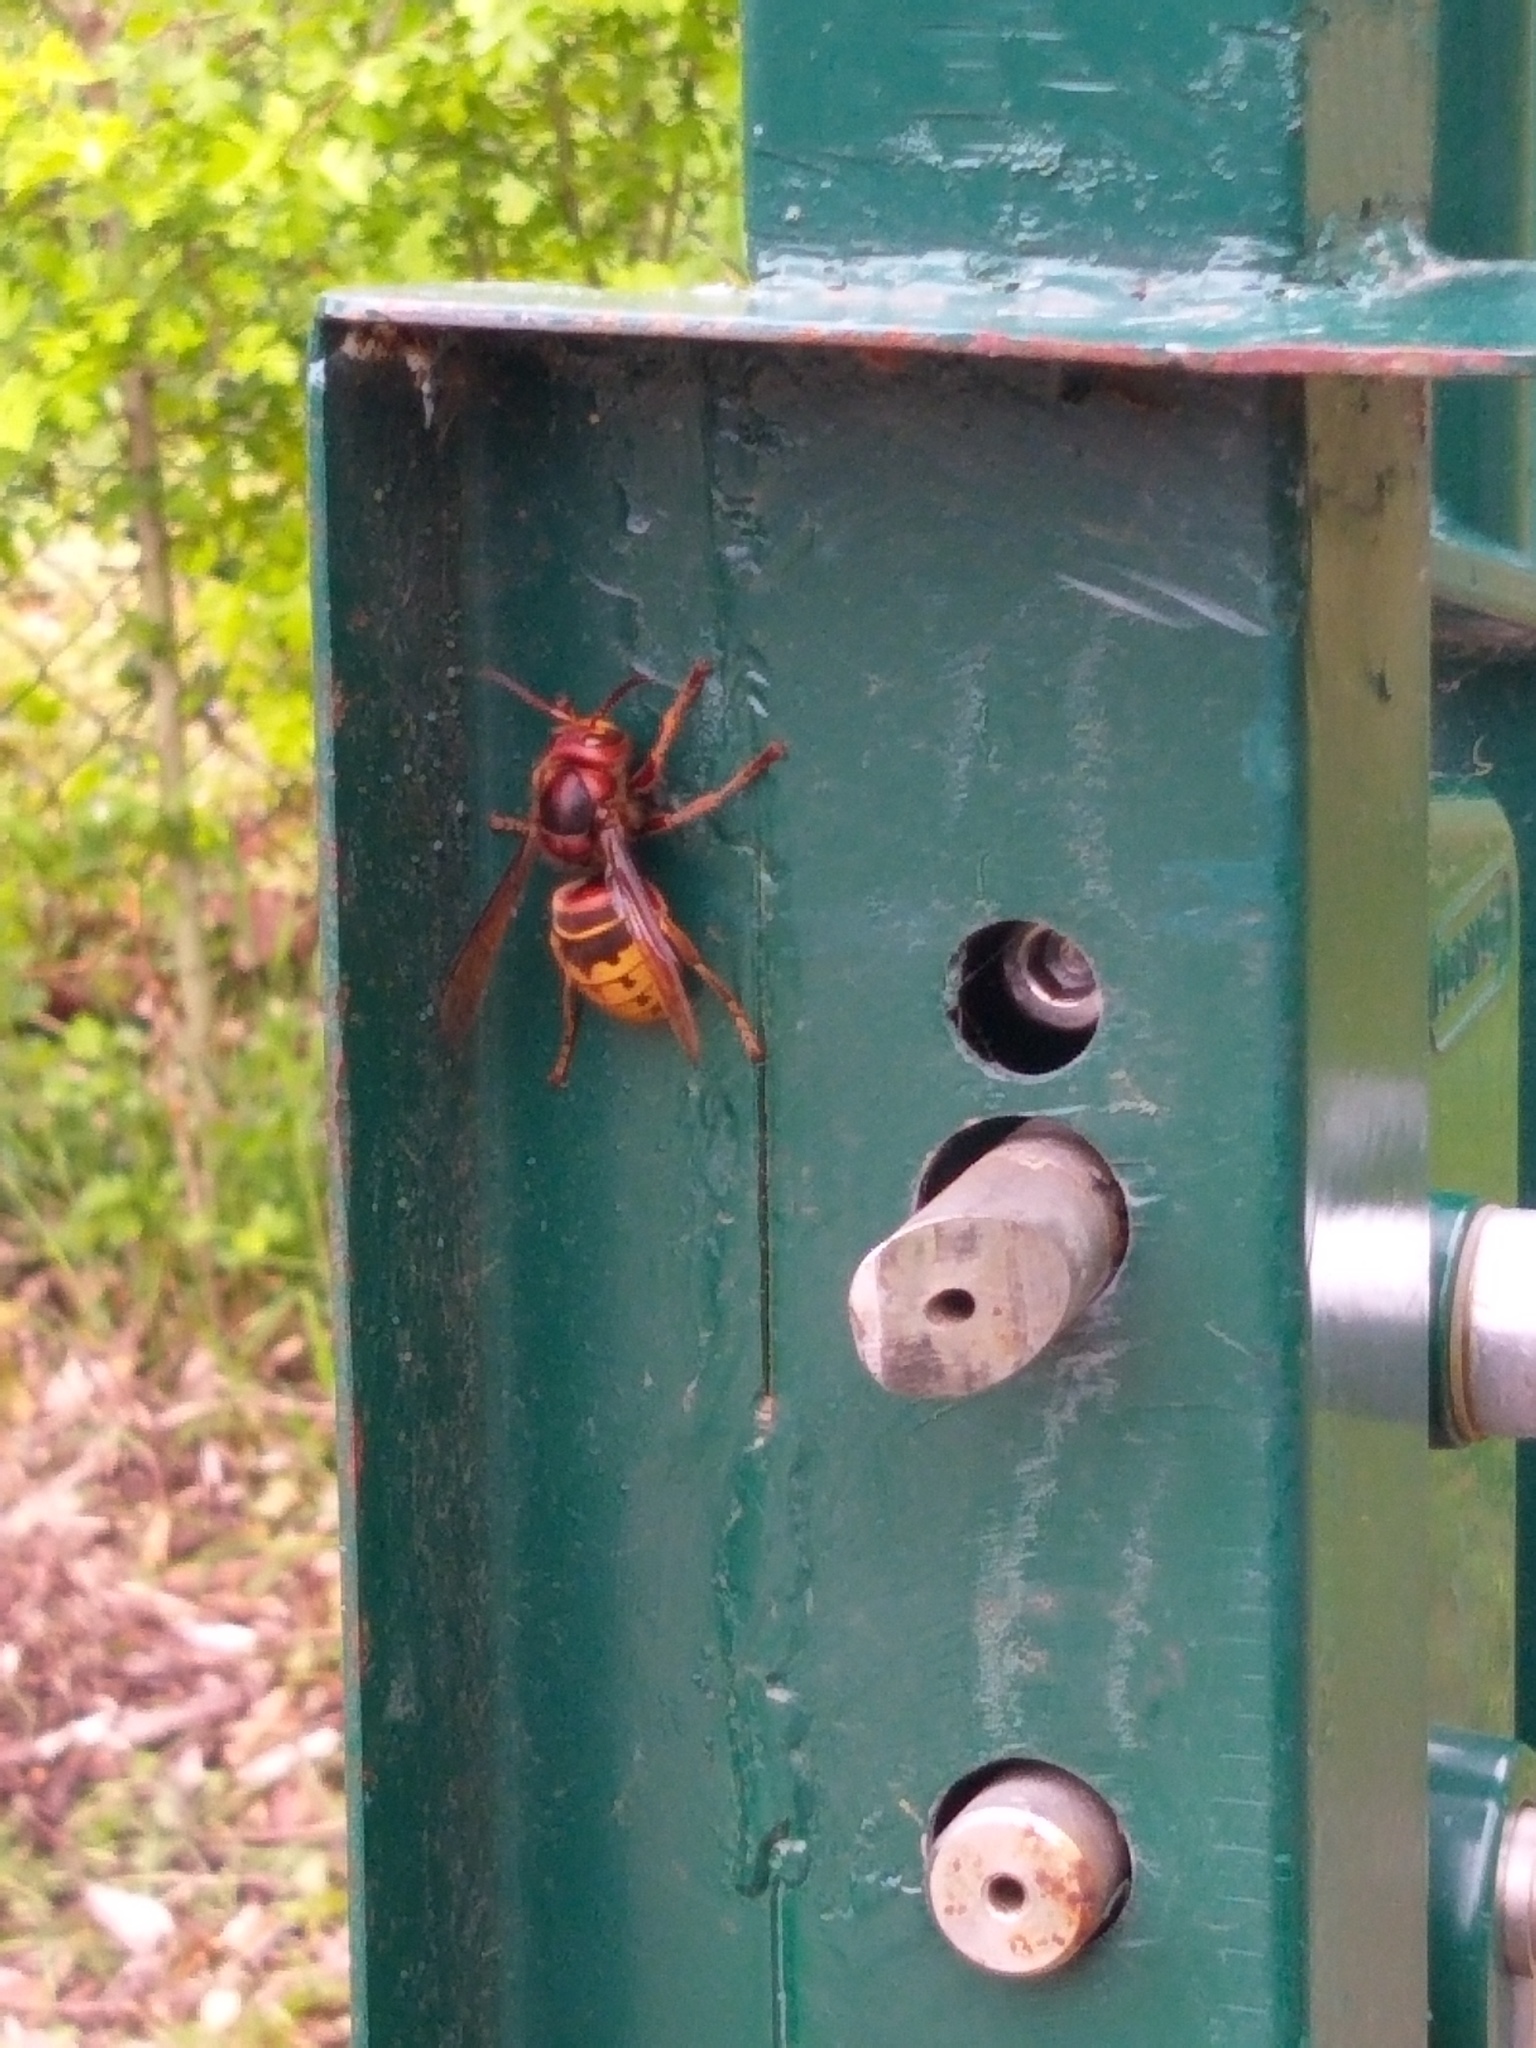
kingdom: Animalia
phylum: Arthropoda
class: Insecta
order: Hymenoptera
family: Vespidae
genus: Vespa
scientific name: Vespa crabro
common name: Hornet
